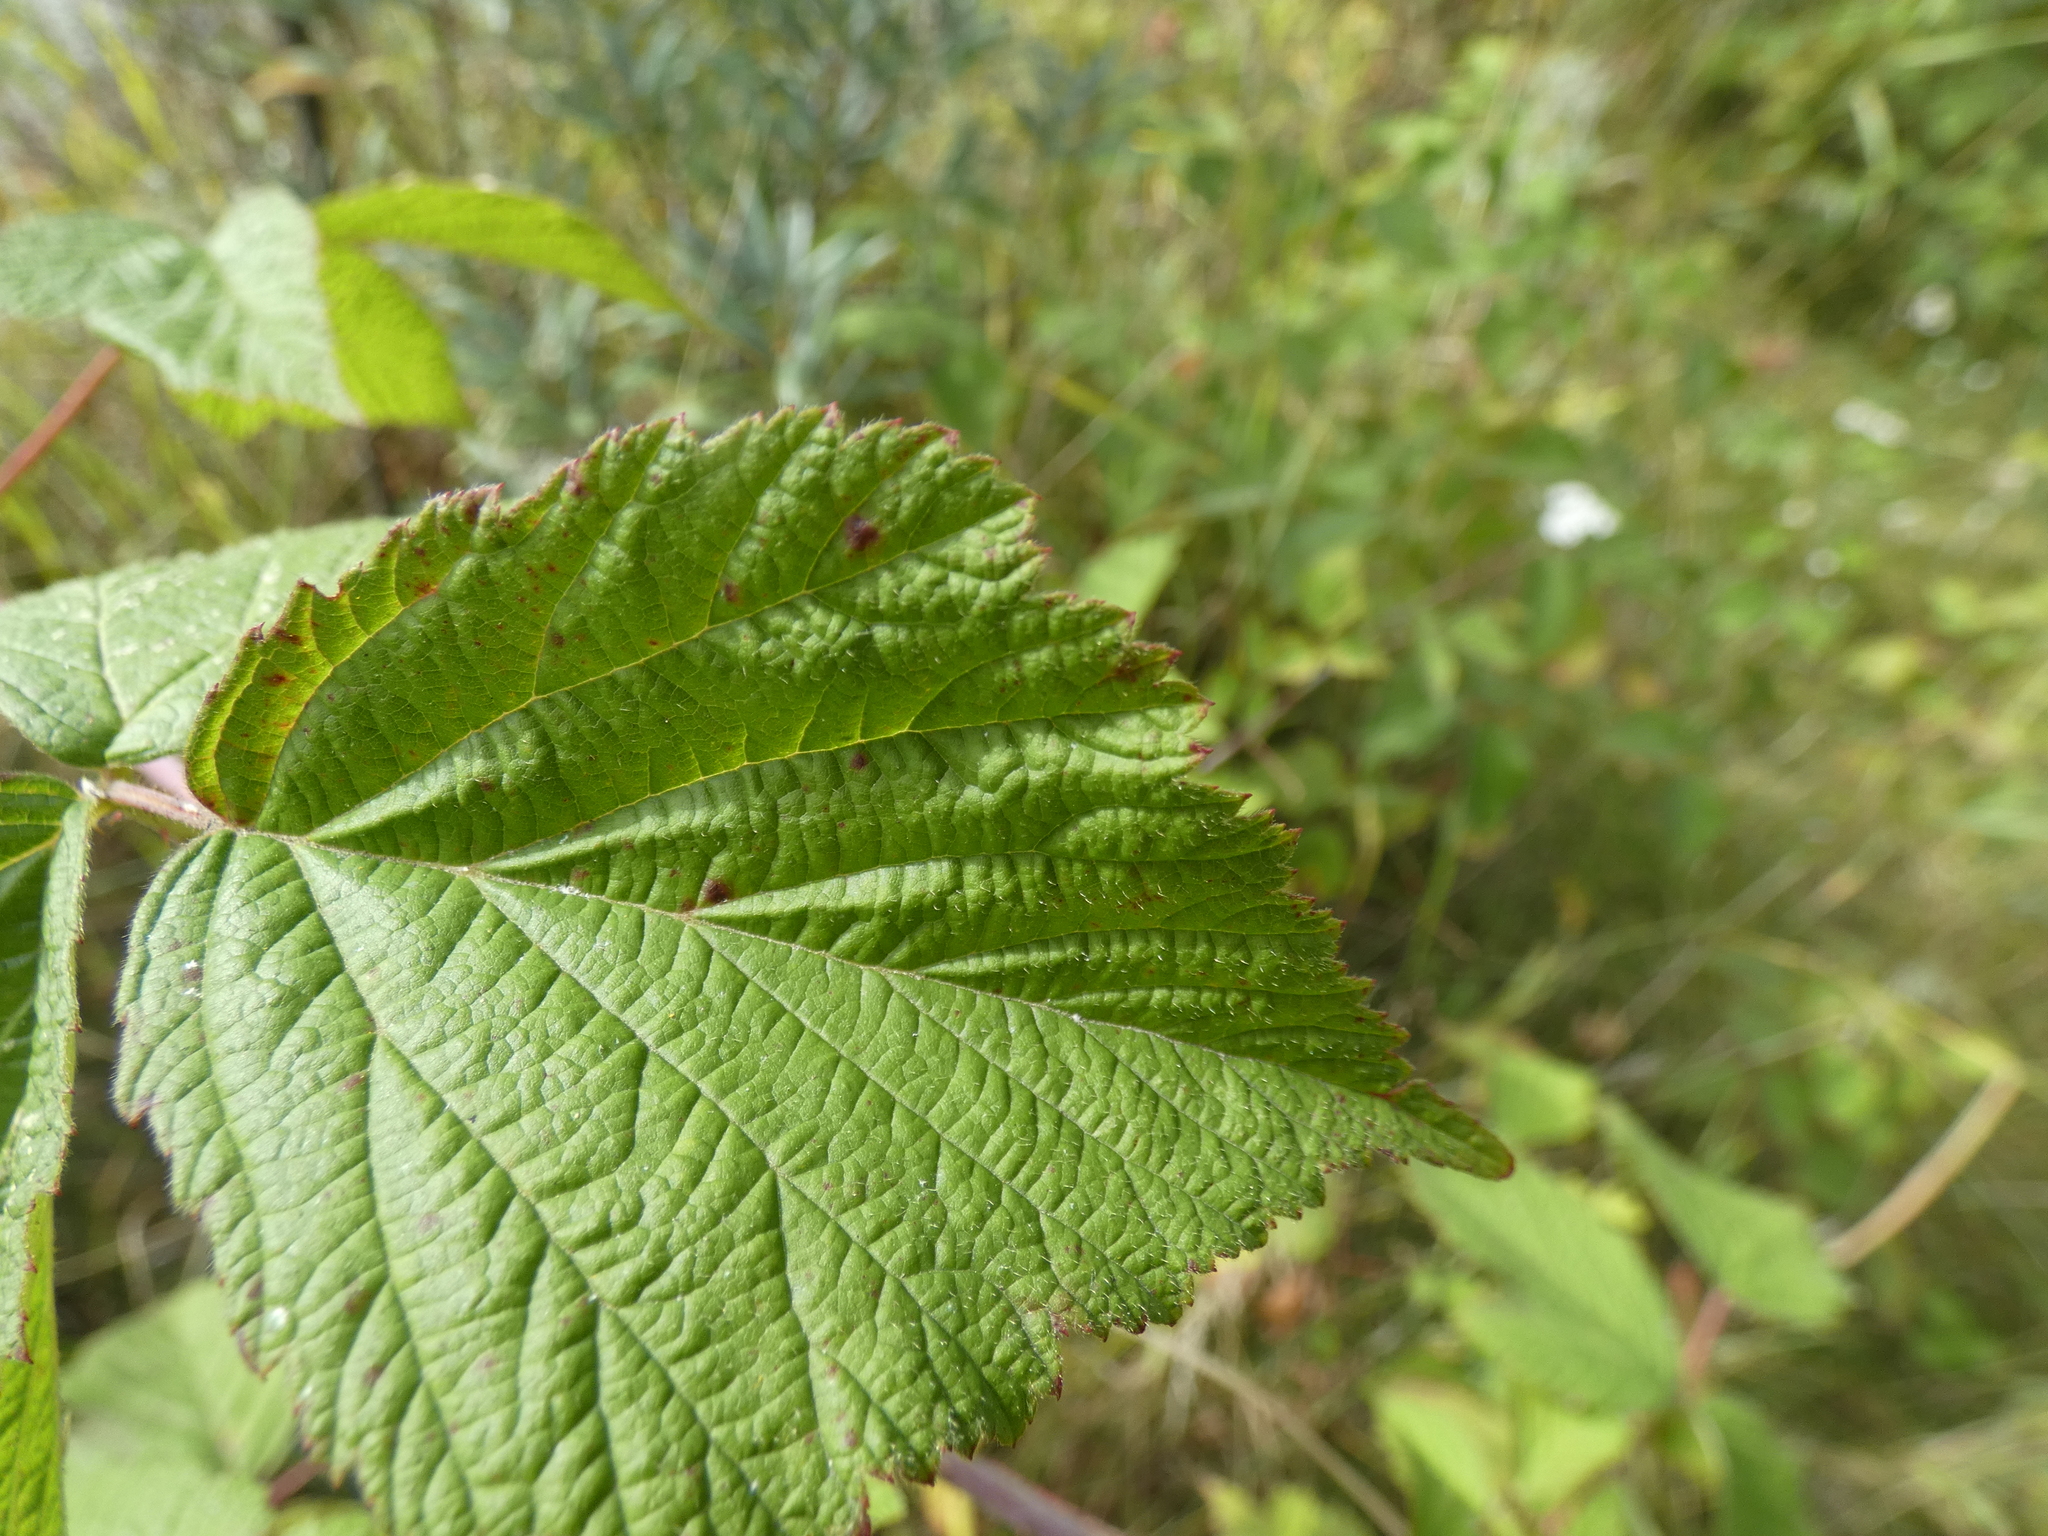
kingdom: Plantae
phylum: Tracheophyta
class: Magnoliopsida
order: Rosales
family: Rosaceae
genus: Rubus
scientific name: Rubus caesius
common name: Dewberry
